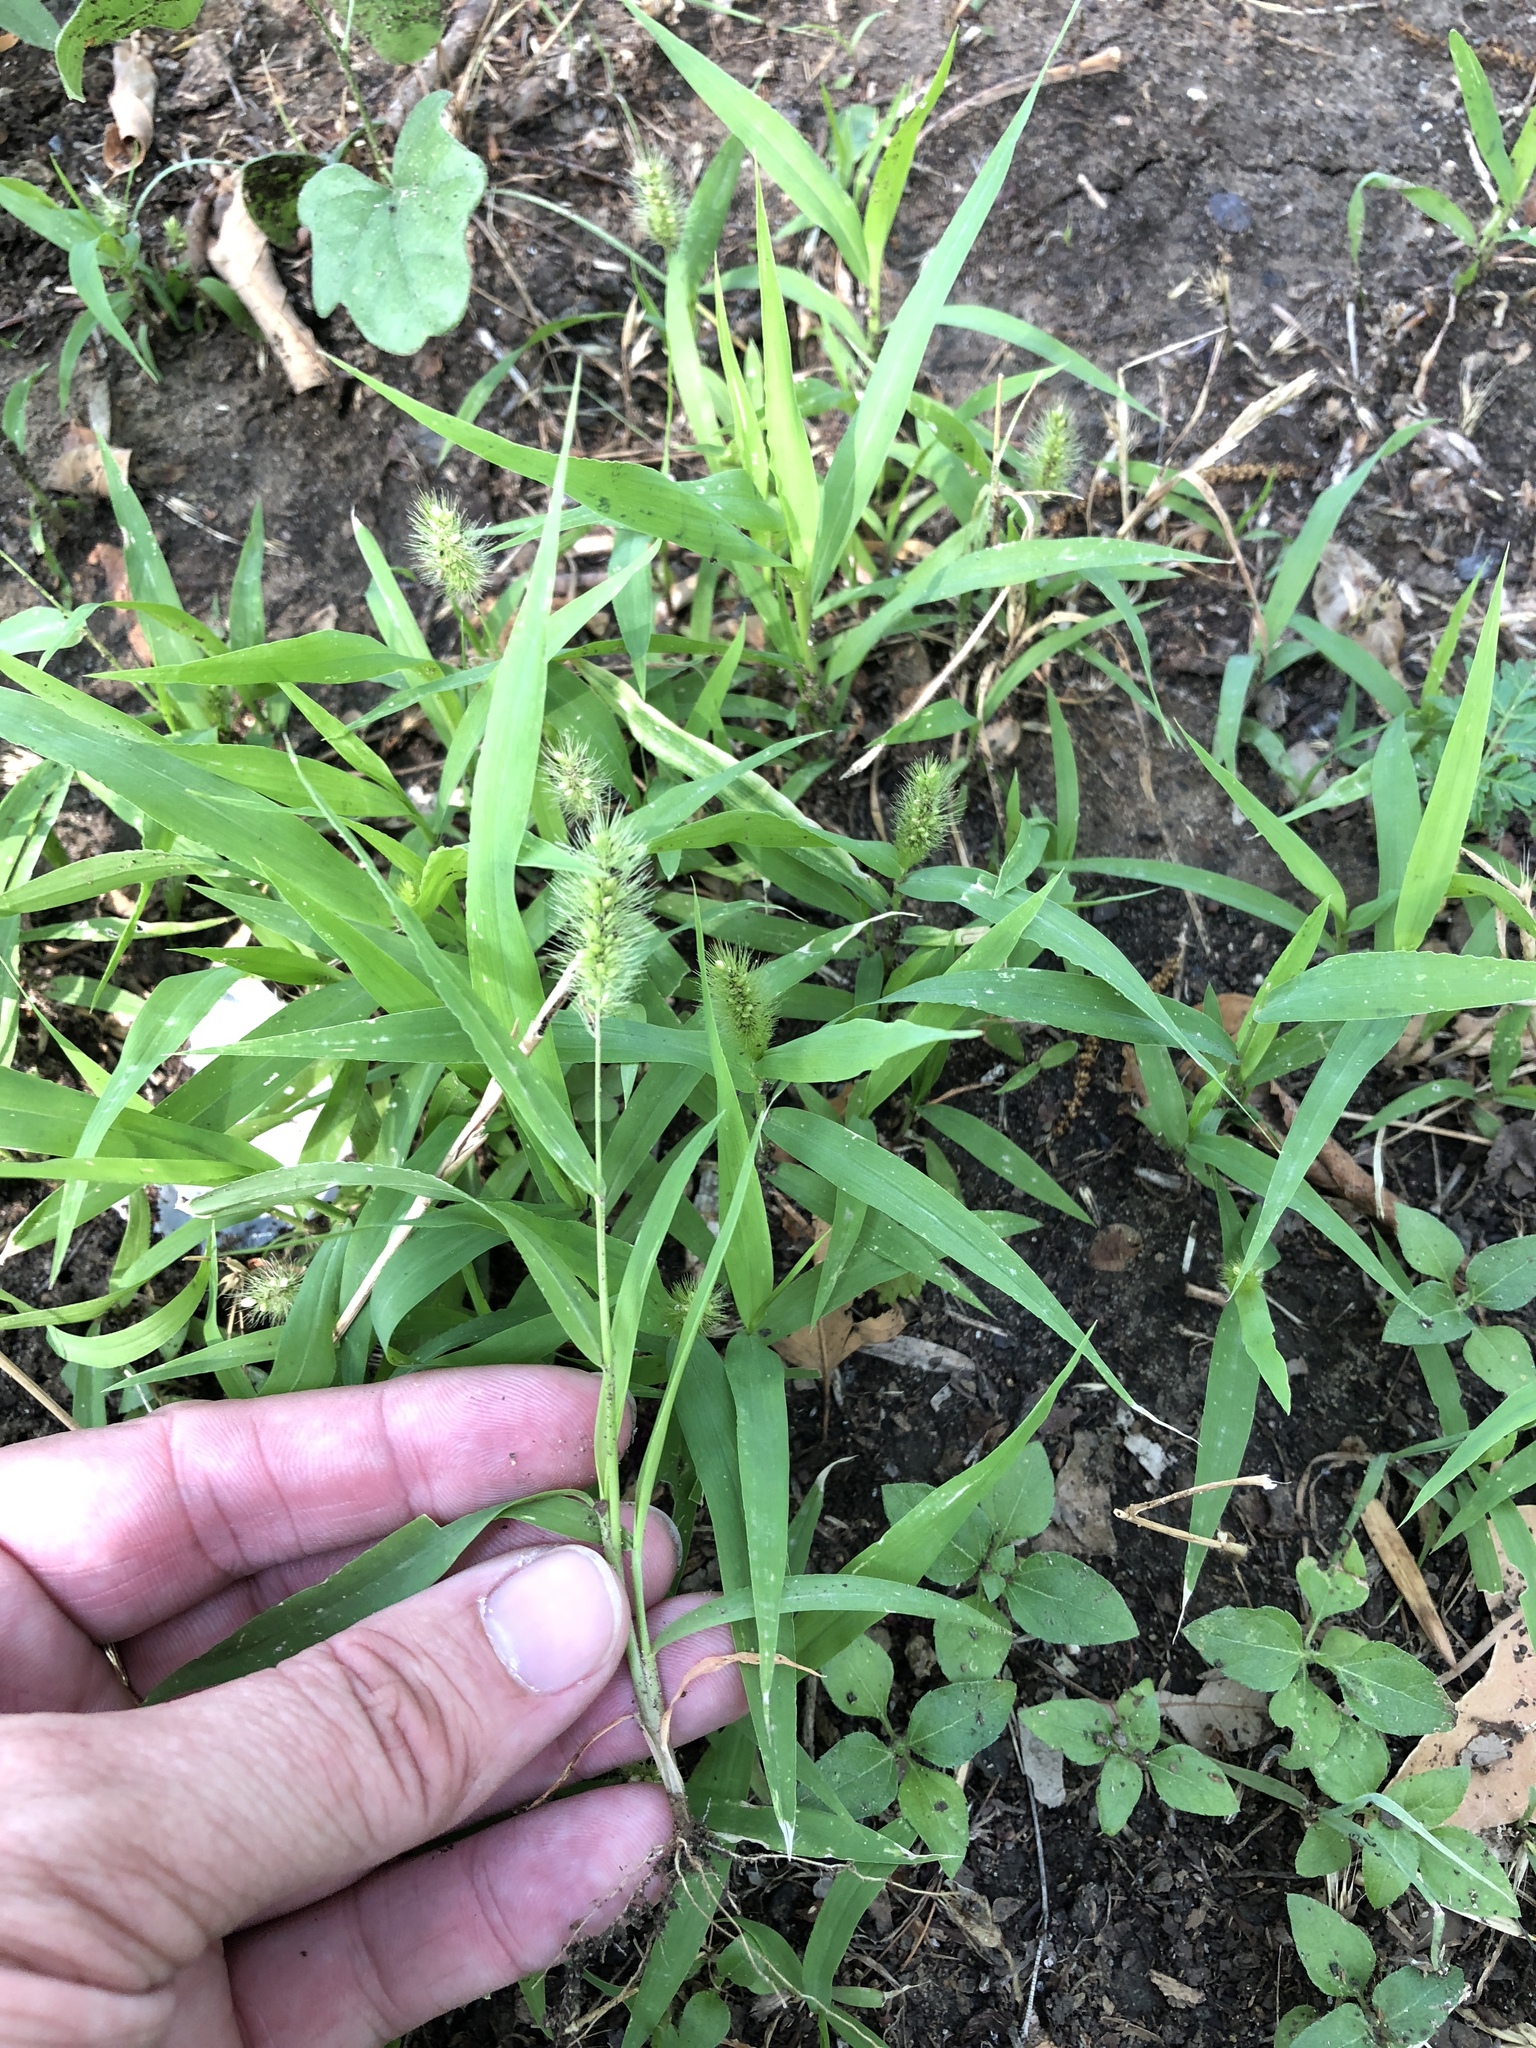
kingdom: Plantae
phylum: Tracheophyta
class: Liliopsida
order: Poales
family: Poaceae
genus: Setaria
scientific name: Setaria viridis
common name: Green bristlegrass
